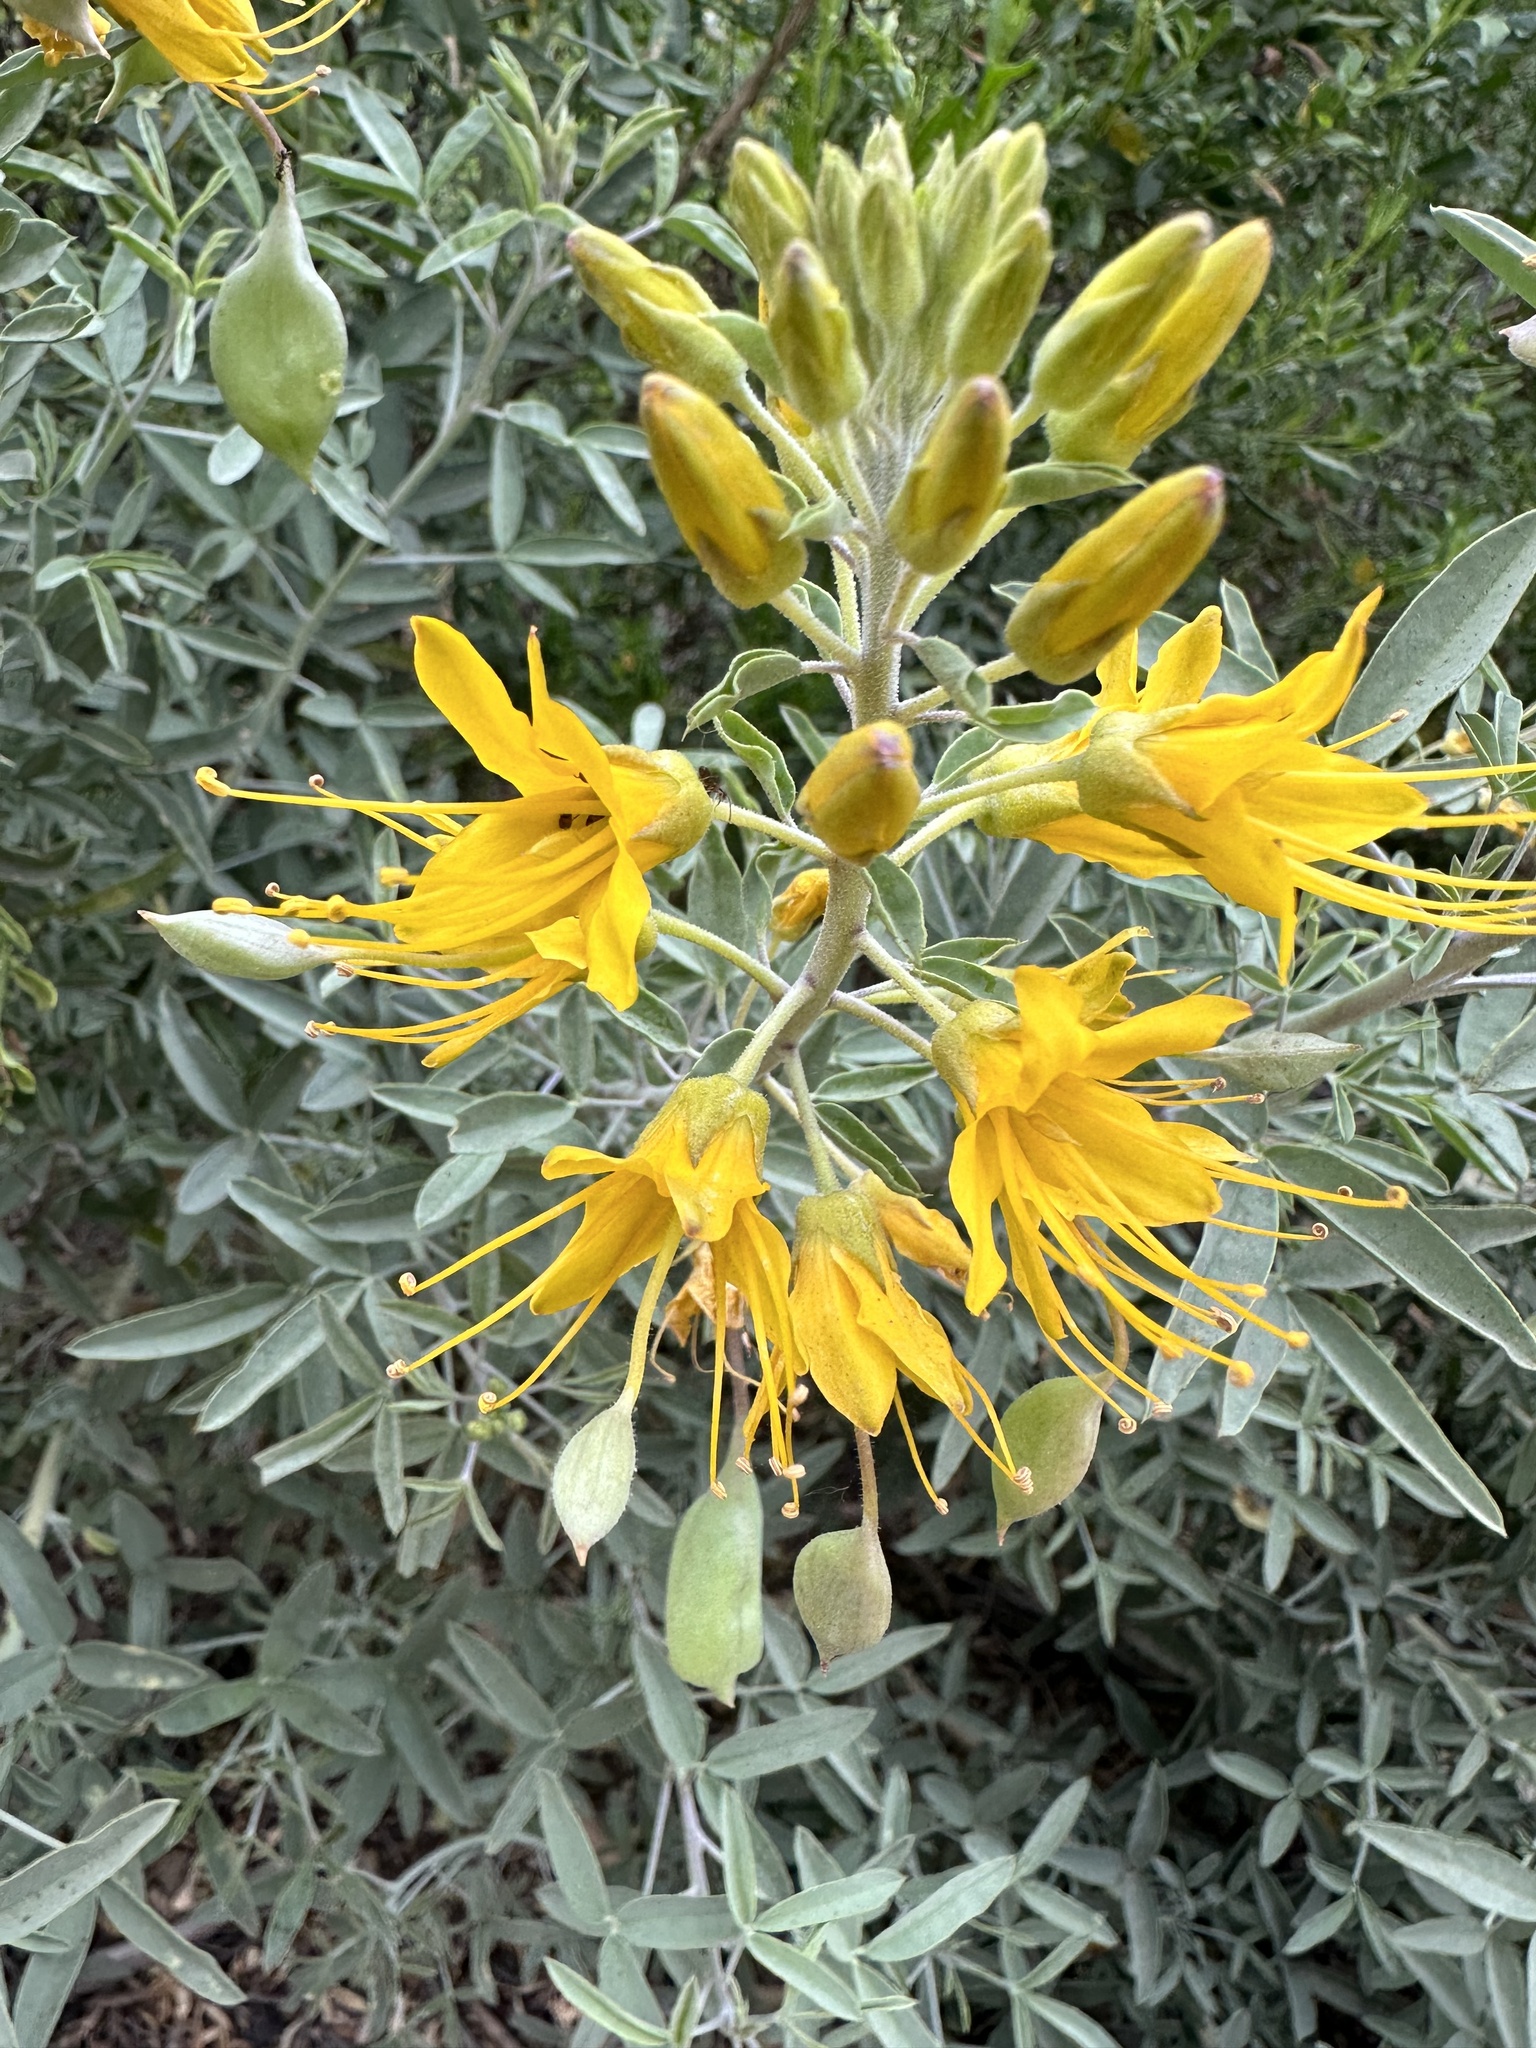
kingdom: Plantae
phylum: Tracheophyta
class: Magnoliopsida
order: Brassicales
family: Cleomaceae
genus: Cleomella
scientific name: Cleomella arborea
